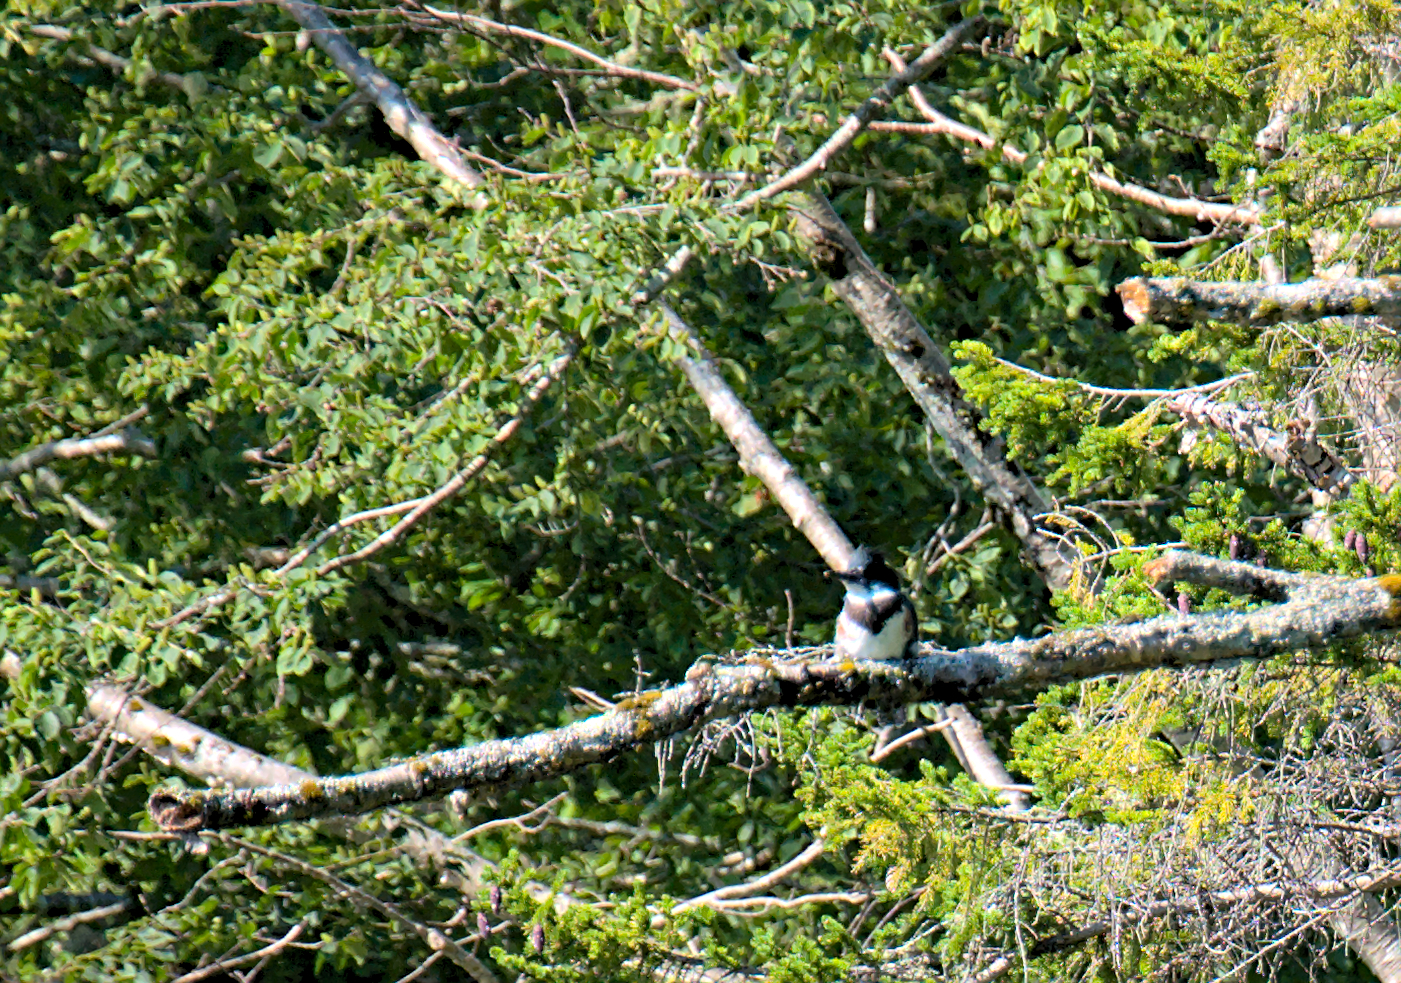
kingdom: Animalia
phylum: Chordata
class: Aves
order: Coraciiformes
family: Alcedinidae
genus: Megaceryle
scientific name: Megaceryle alcyon
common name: Belted kingfisher
